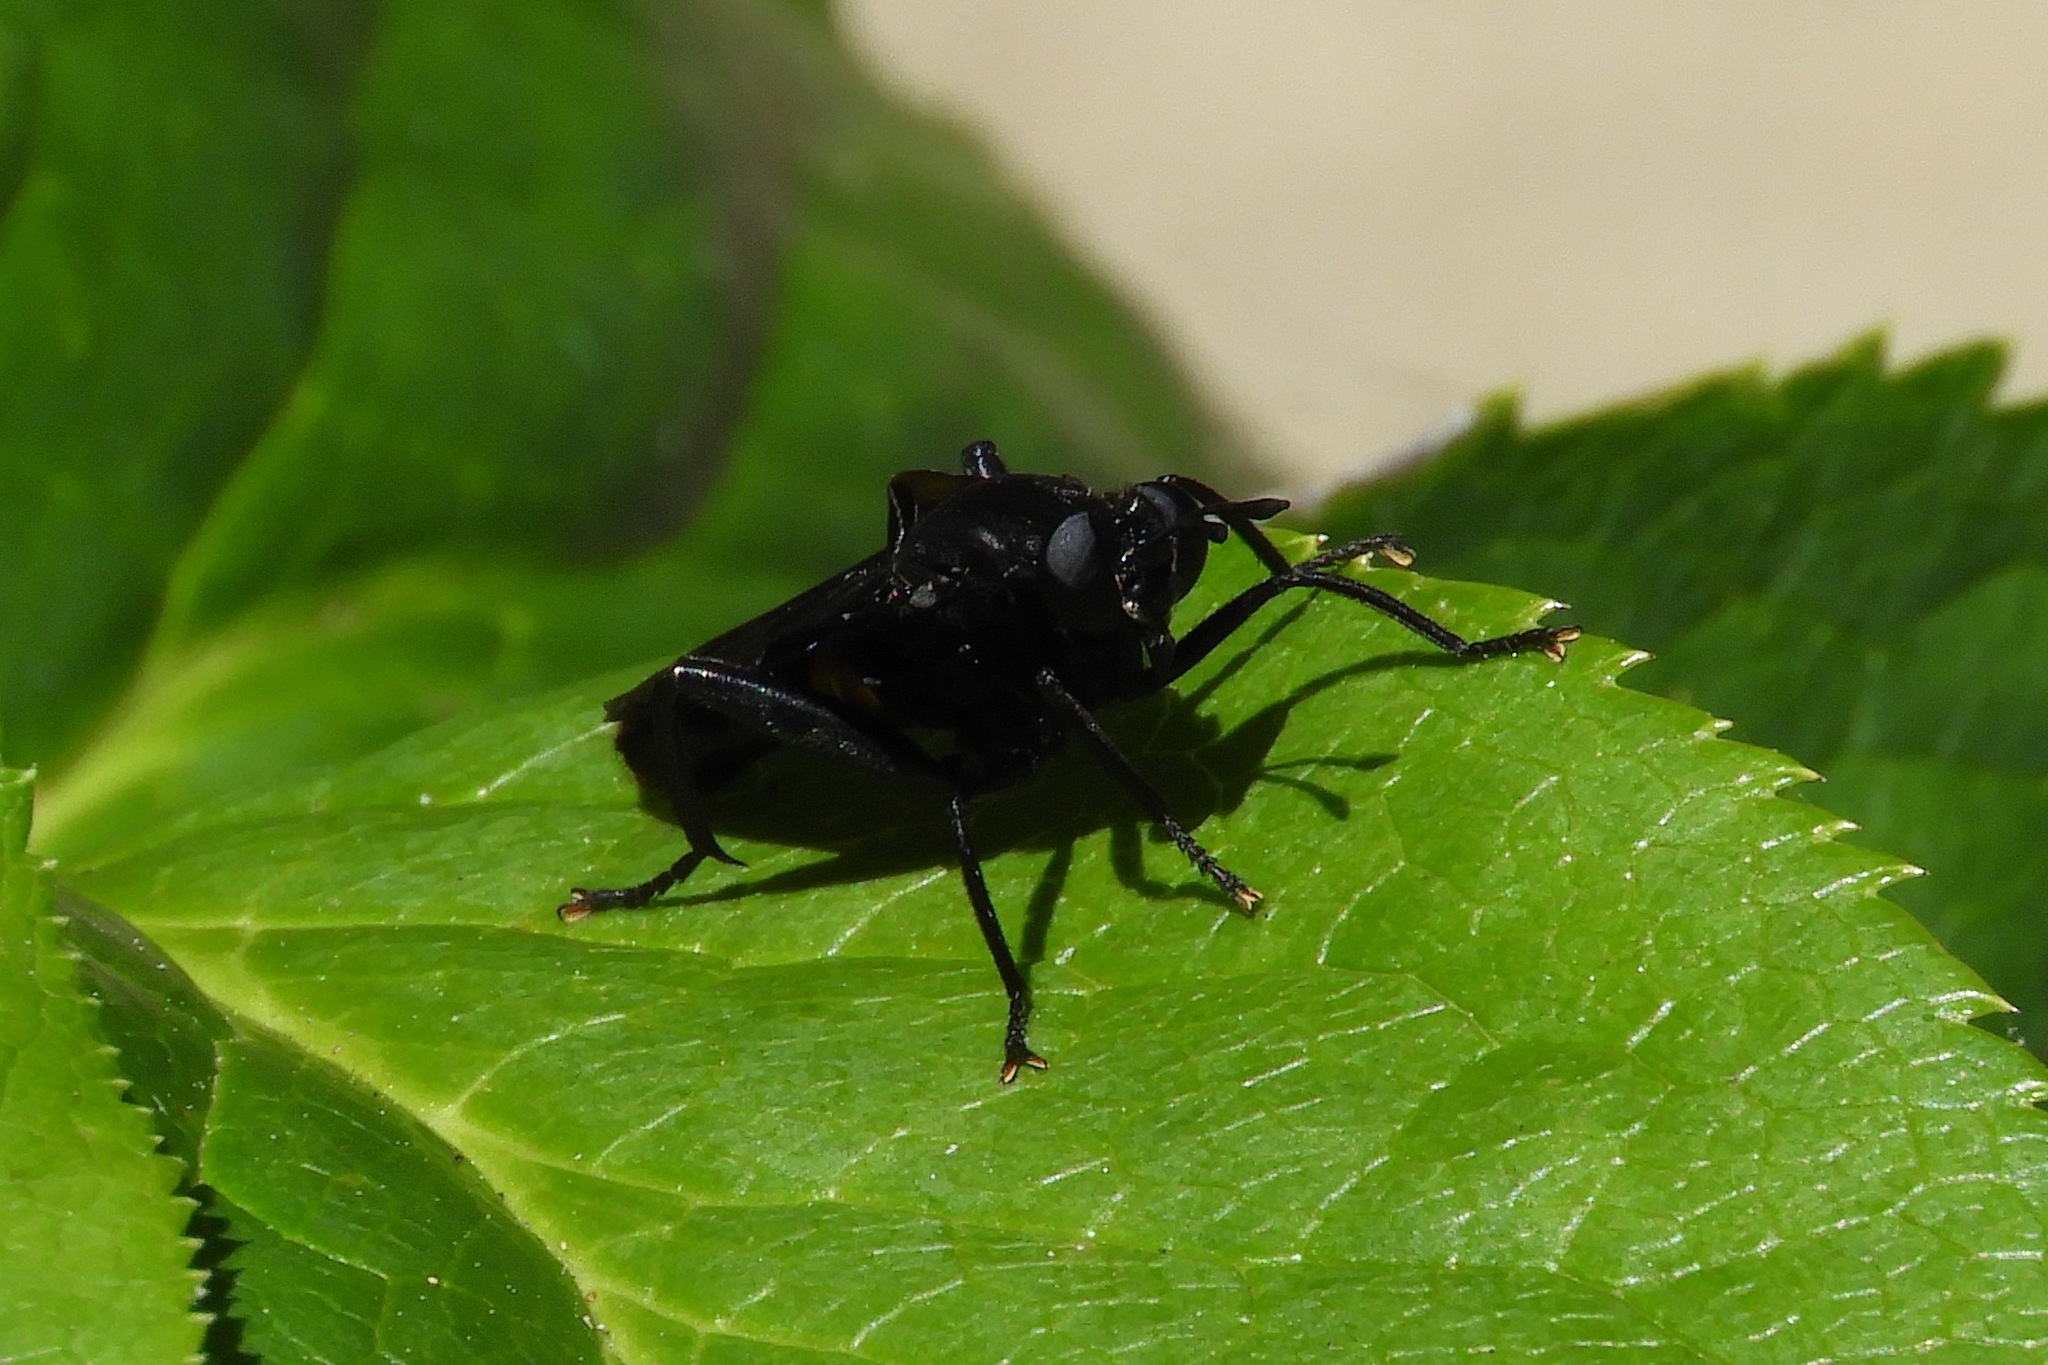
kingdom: Animalia
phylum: Arthropoda
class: Insecta
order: Diptera
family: Mydidae
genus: Mydas
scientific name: Mydas clavatus
